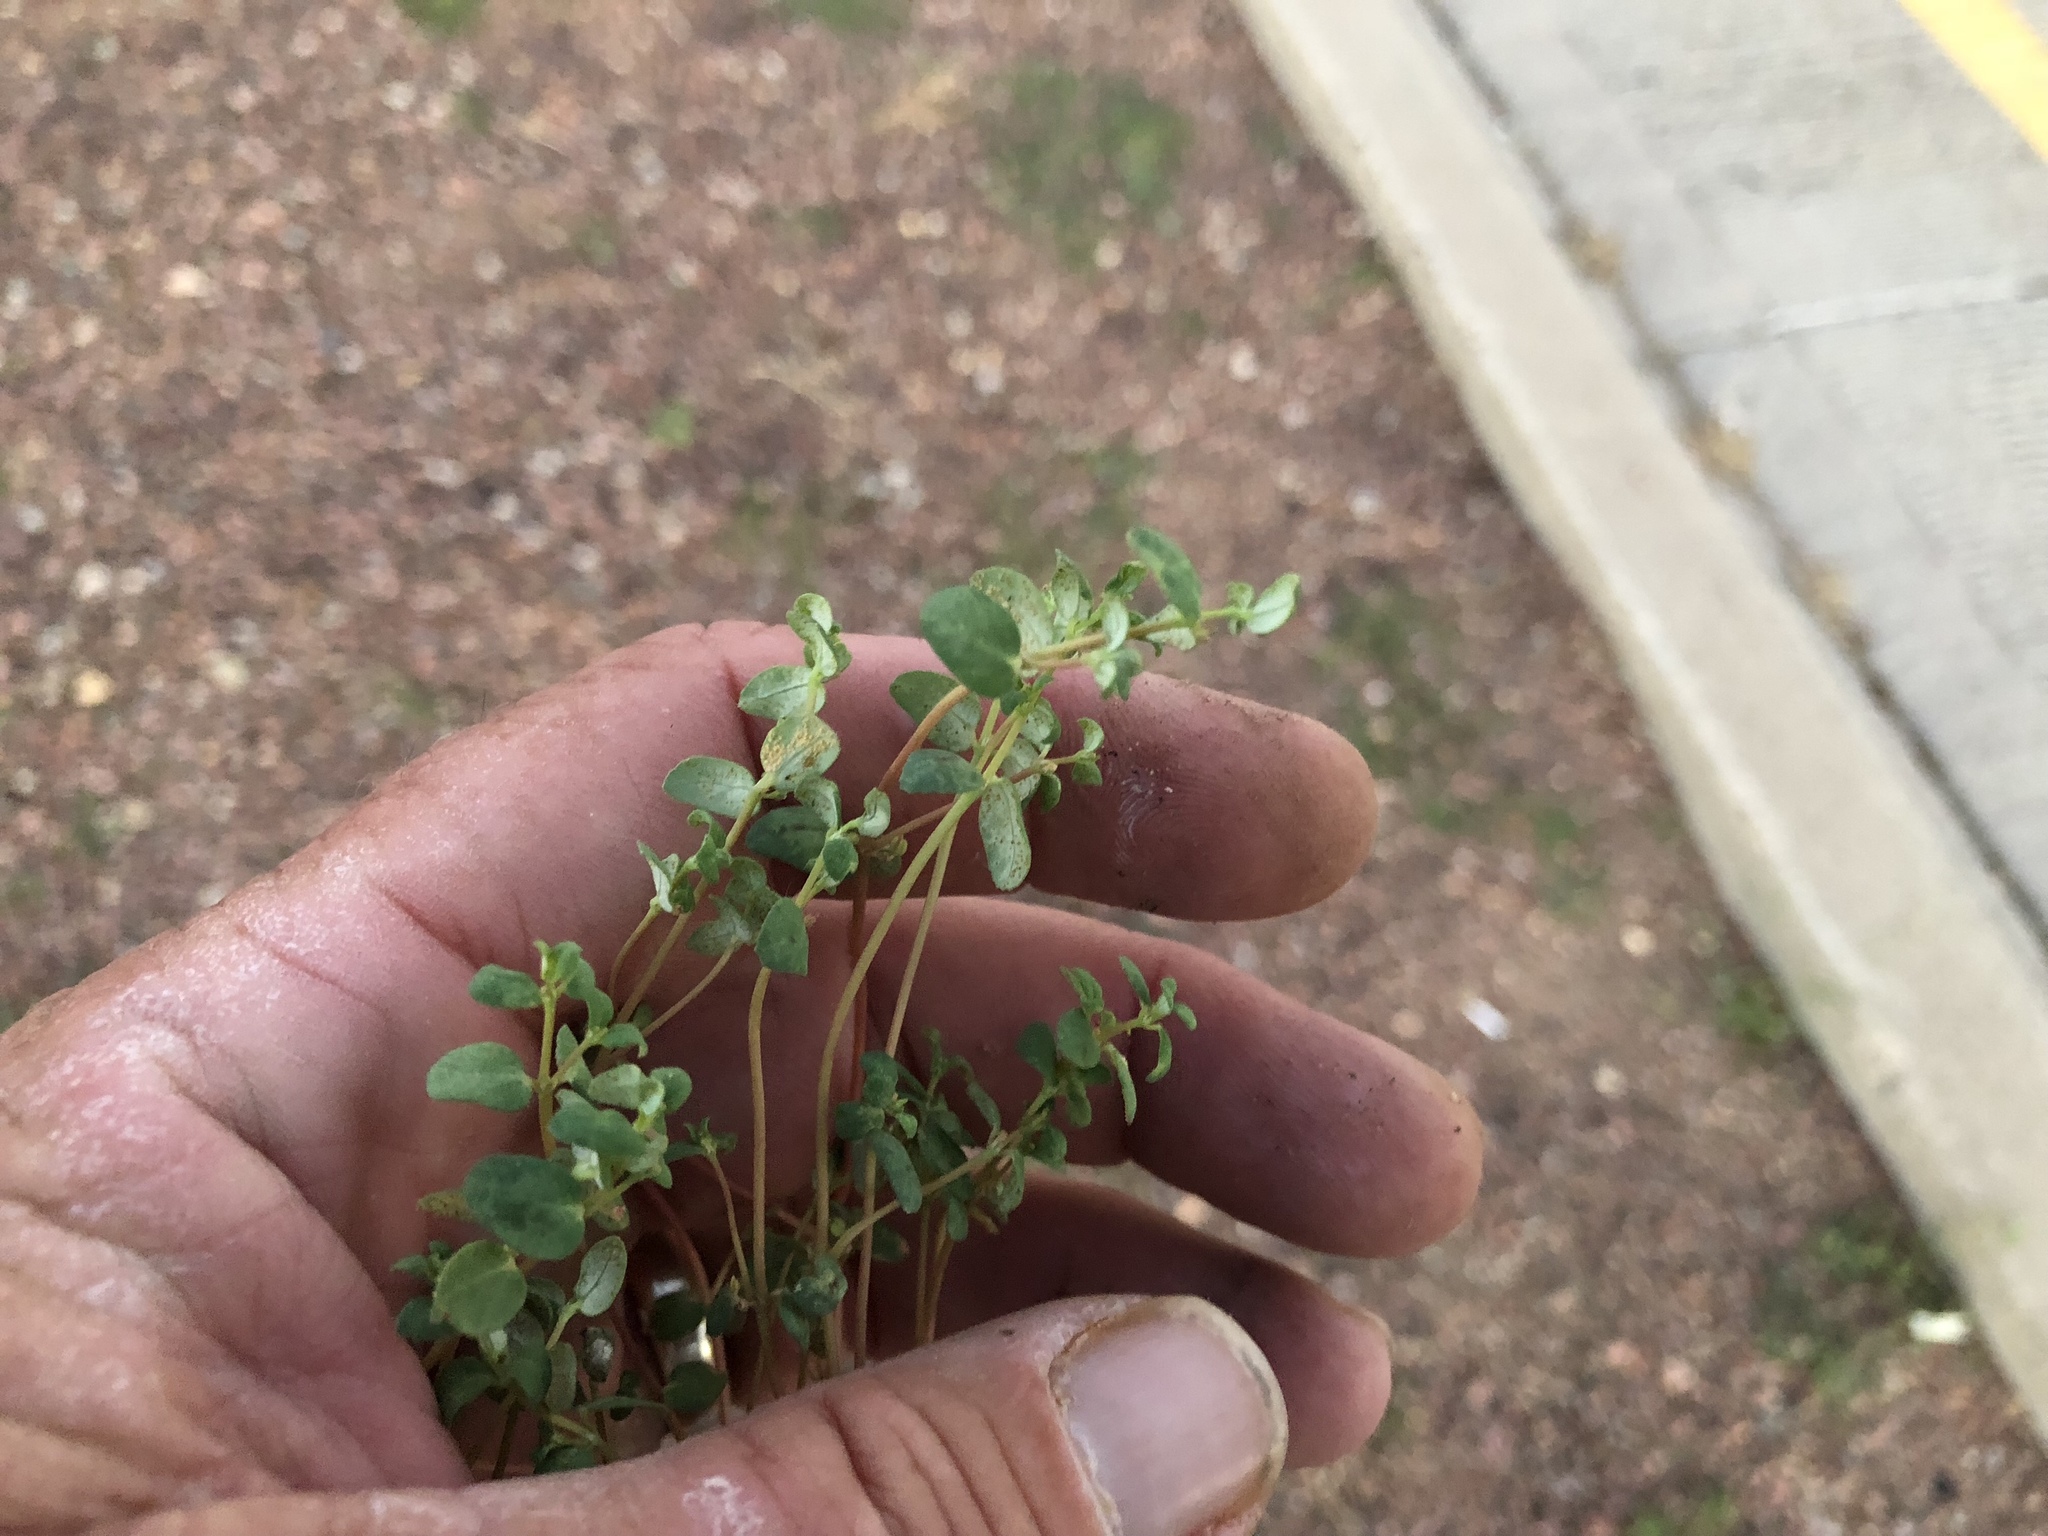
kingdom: Fungi
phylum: Basidiomycota
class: Pucciniomycetes
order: Pucciniales
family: Pucciniaceae
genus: Uromyces
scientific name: Uromyces proeminens
